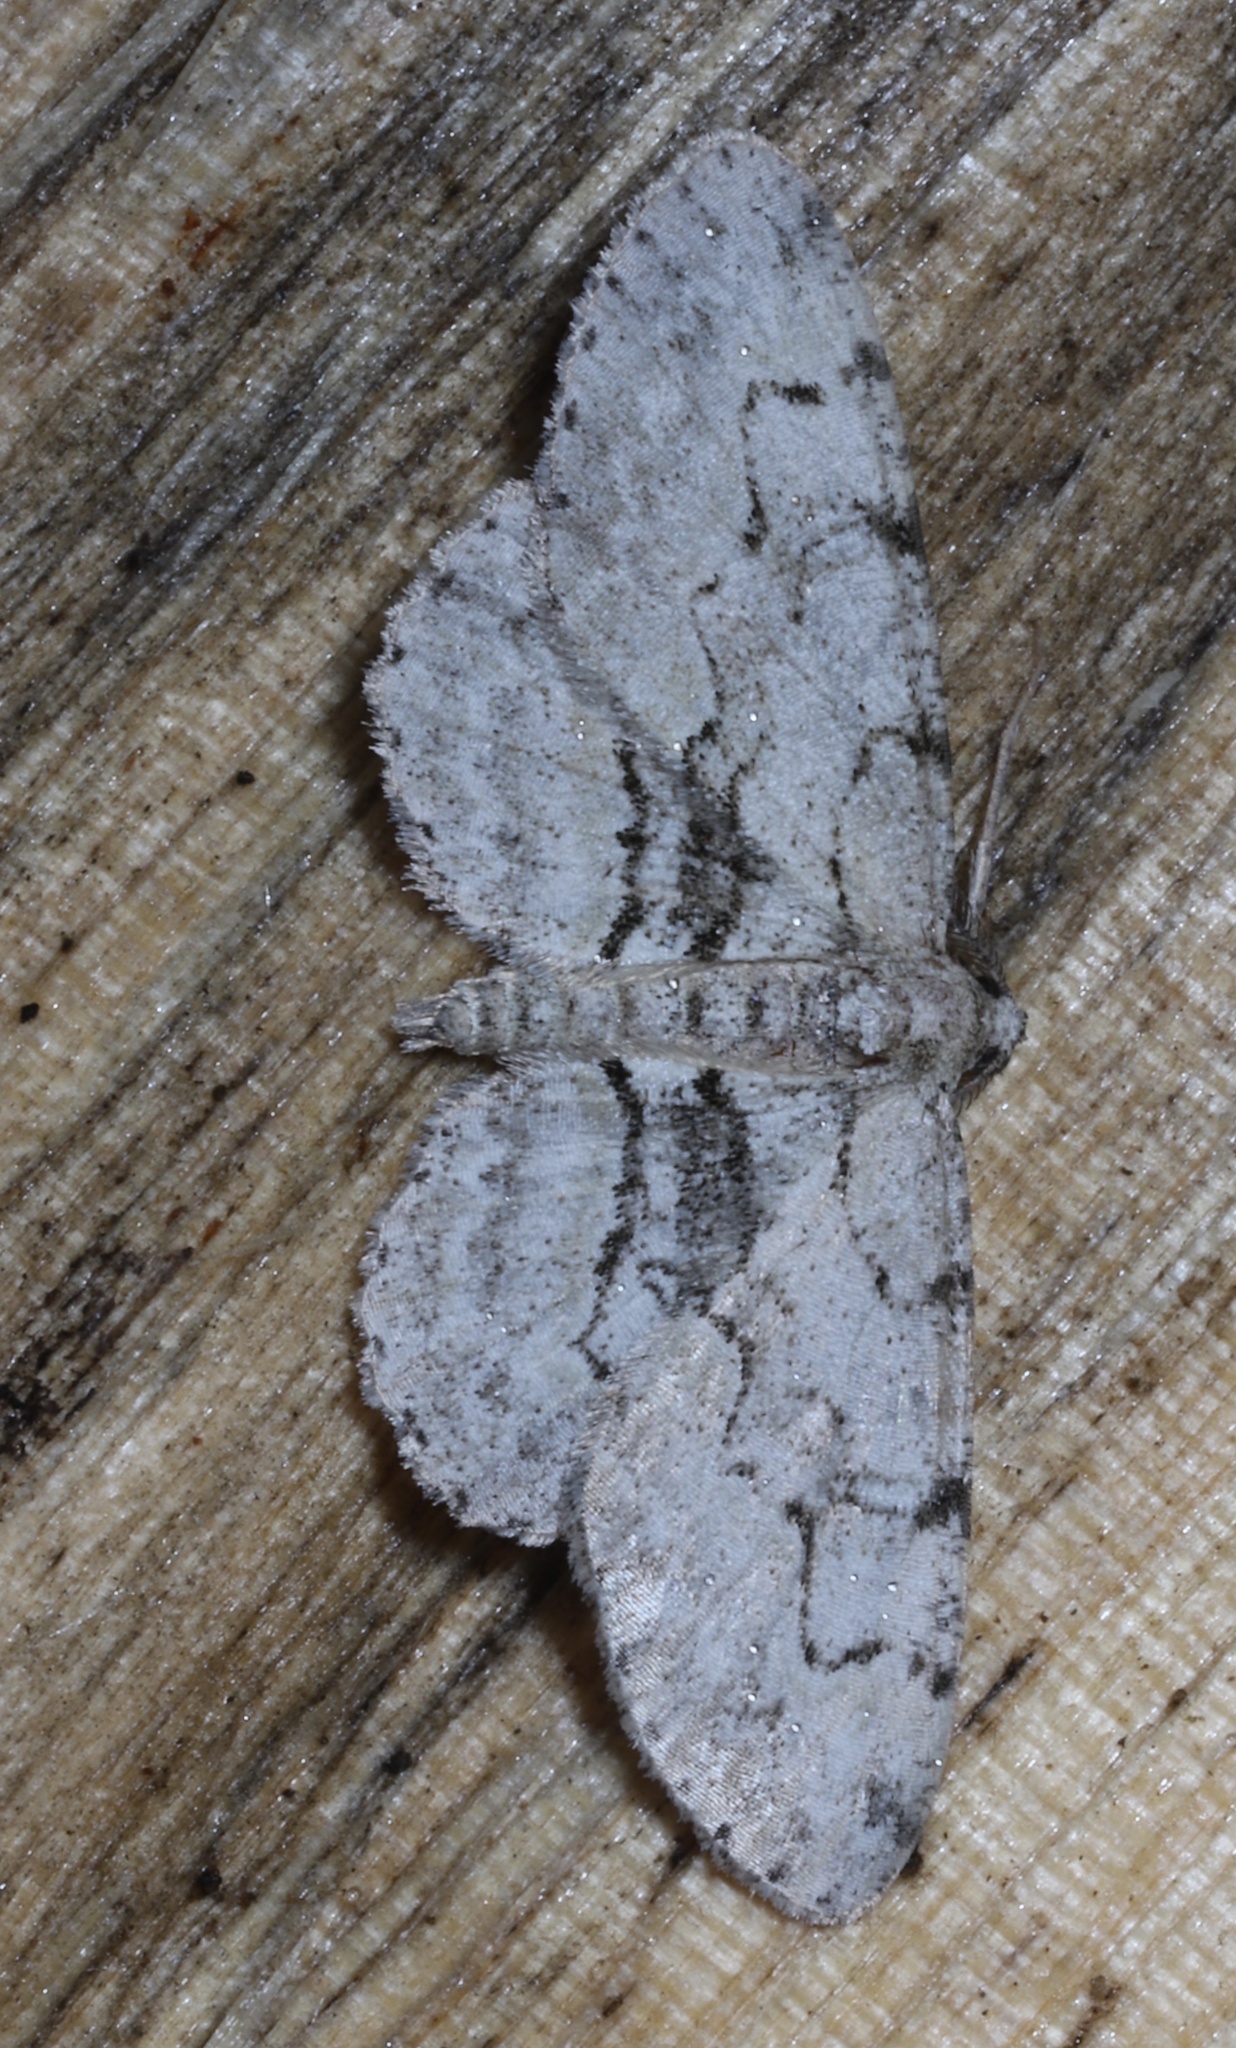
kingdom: Animalia
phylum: Arthropoda
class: Insecta
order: Lepidoptera
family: Geometridae
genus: Iridopsis
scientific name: Iridopsis ephyraria
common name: Pale-winged gray
